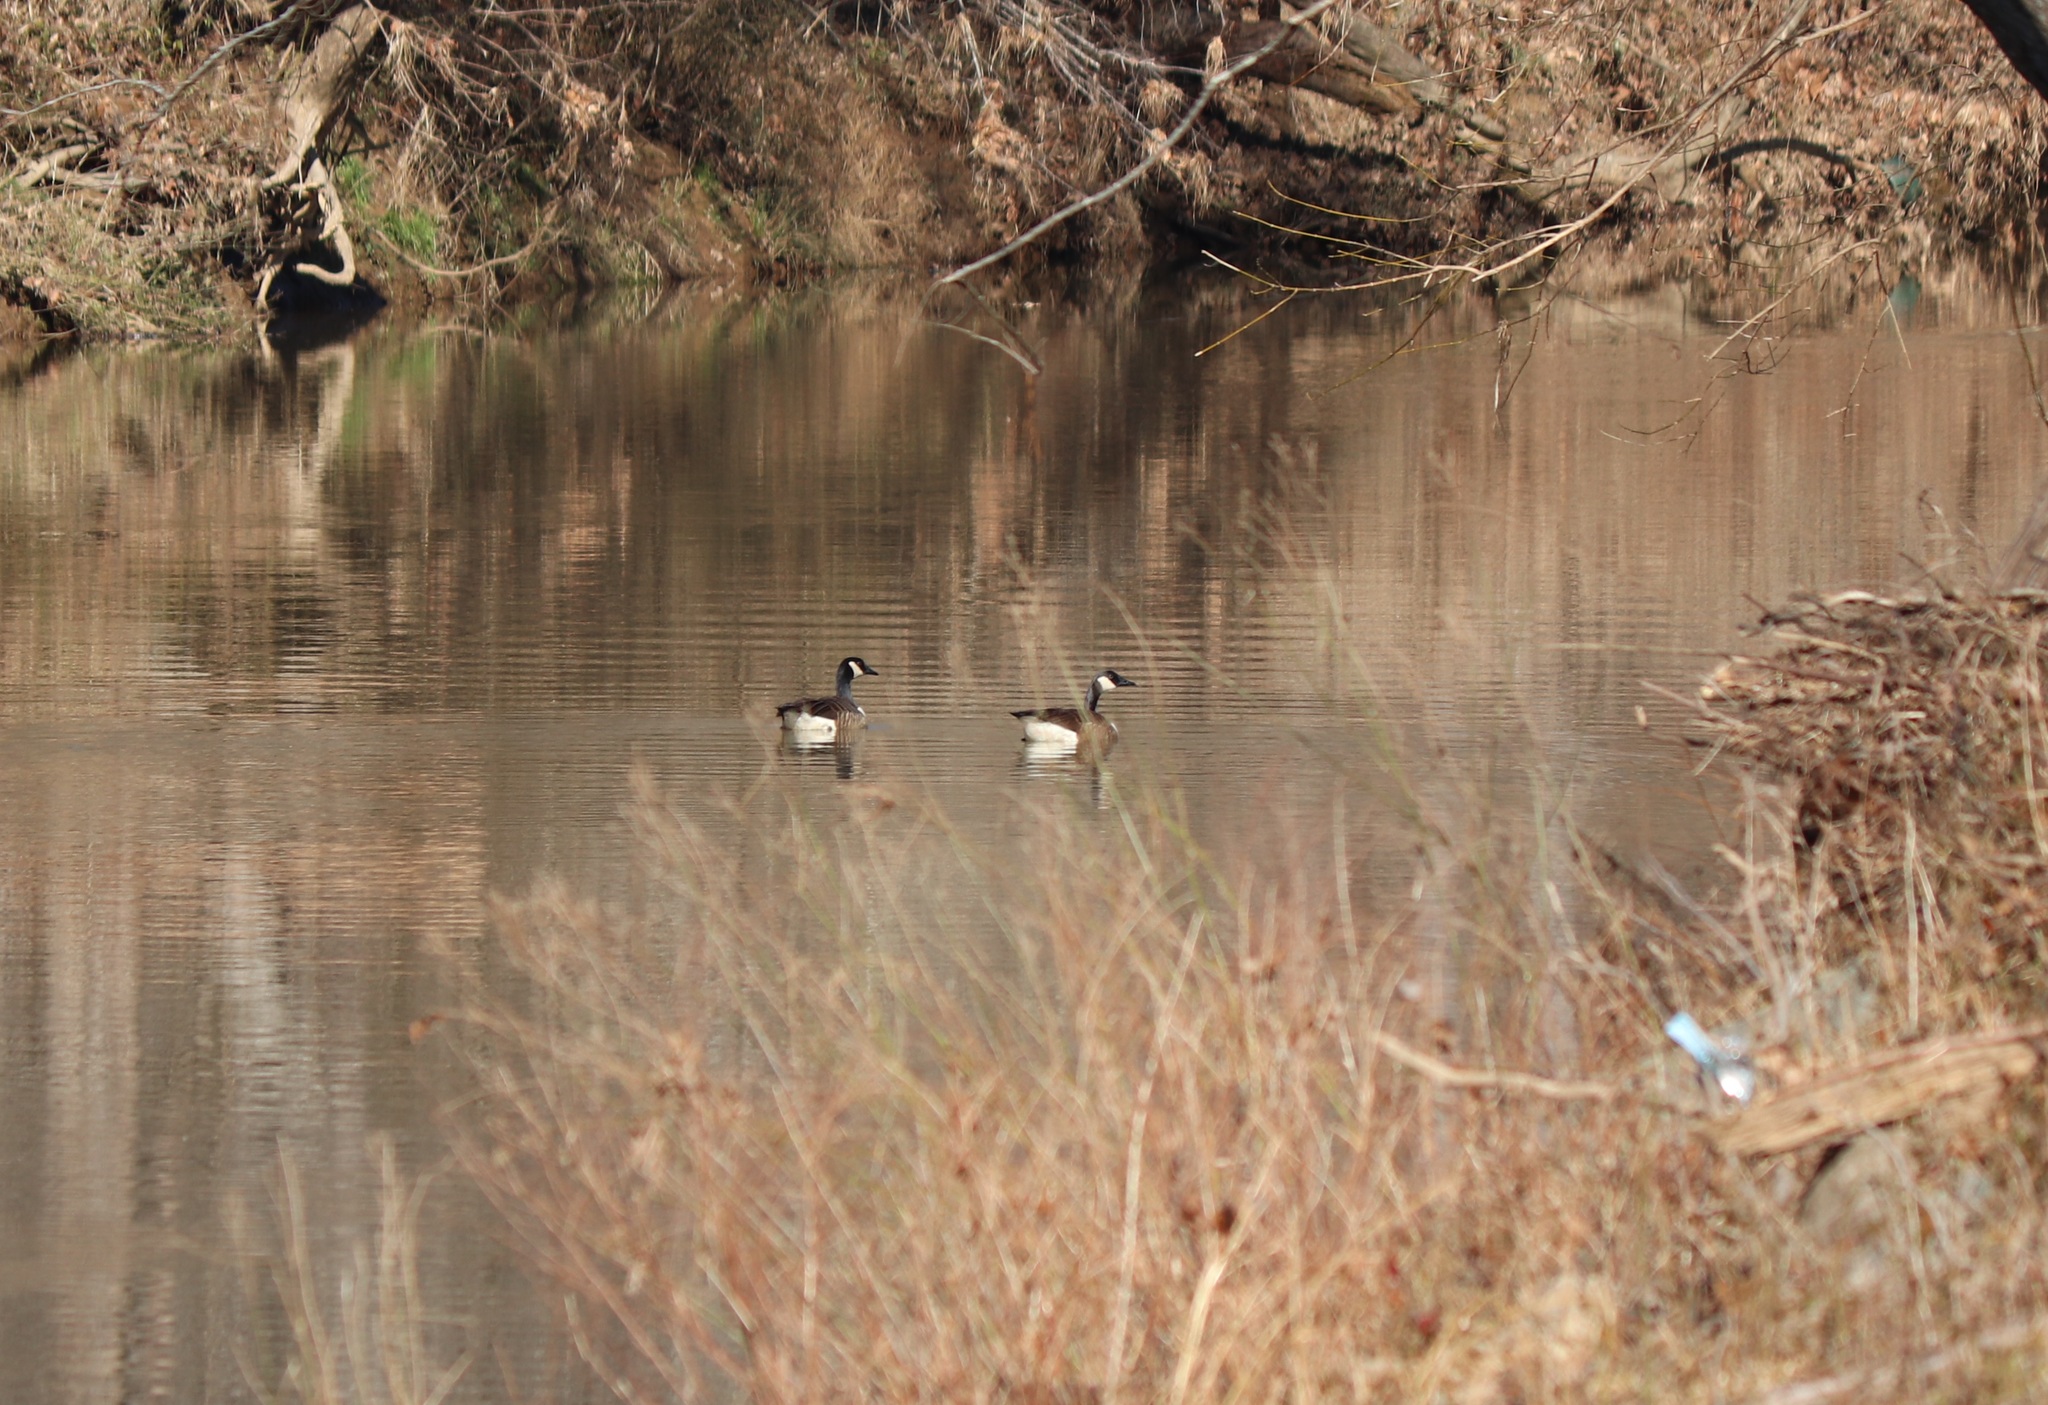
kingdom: Animalia
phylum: Chordata
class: Aves
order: Anseriformes
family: Anatidae
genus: Branta
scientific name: Branta canadensis
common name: Canada goose
